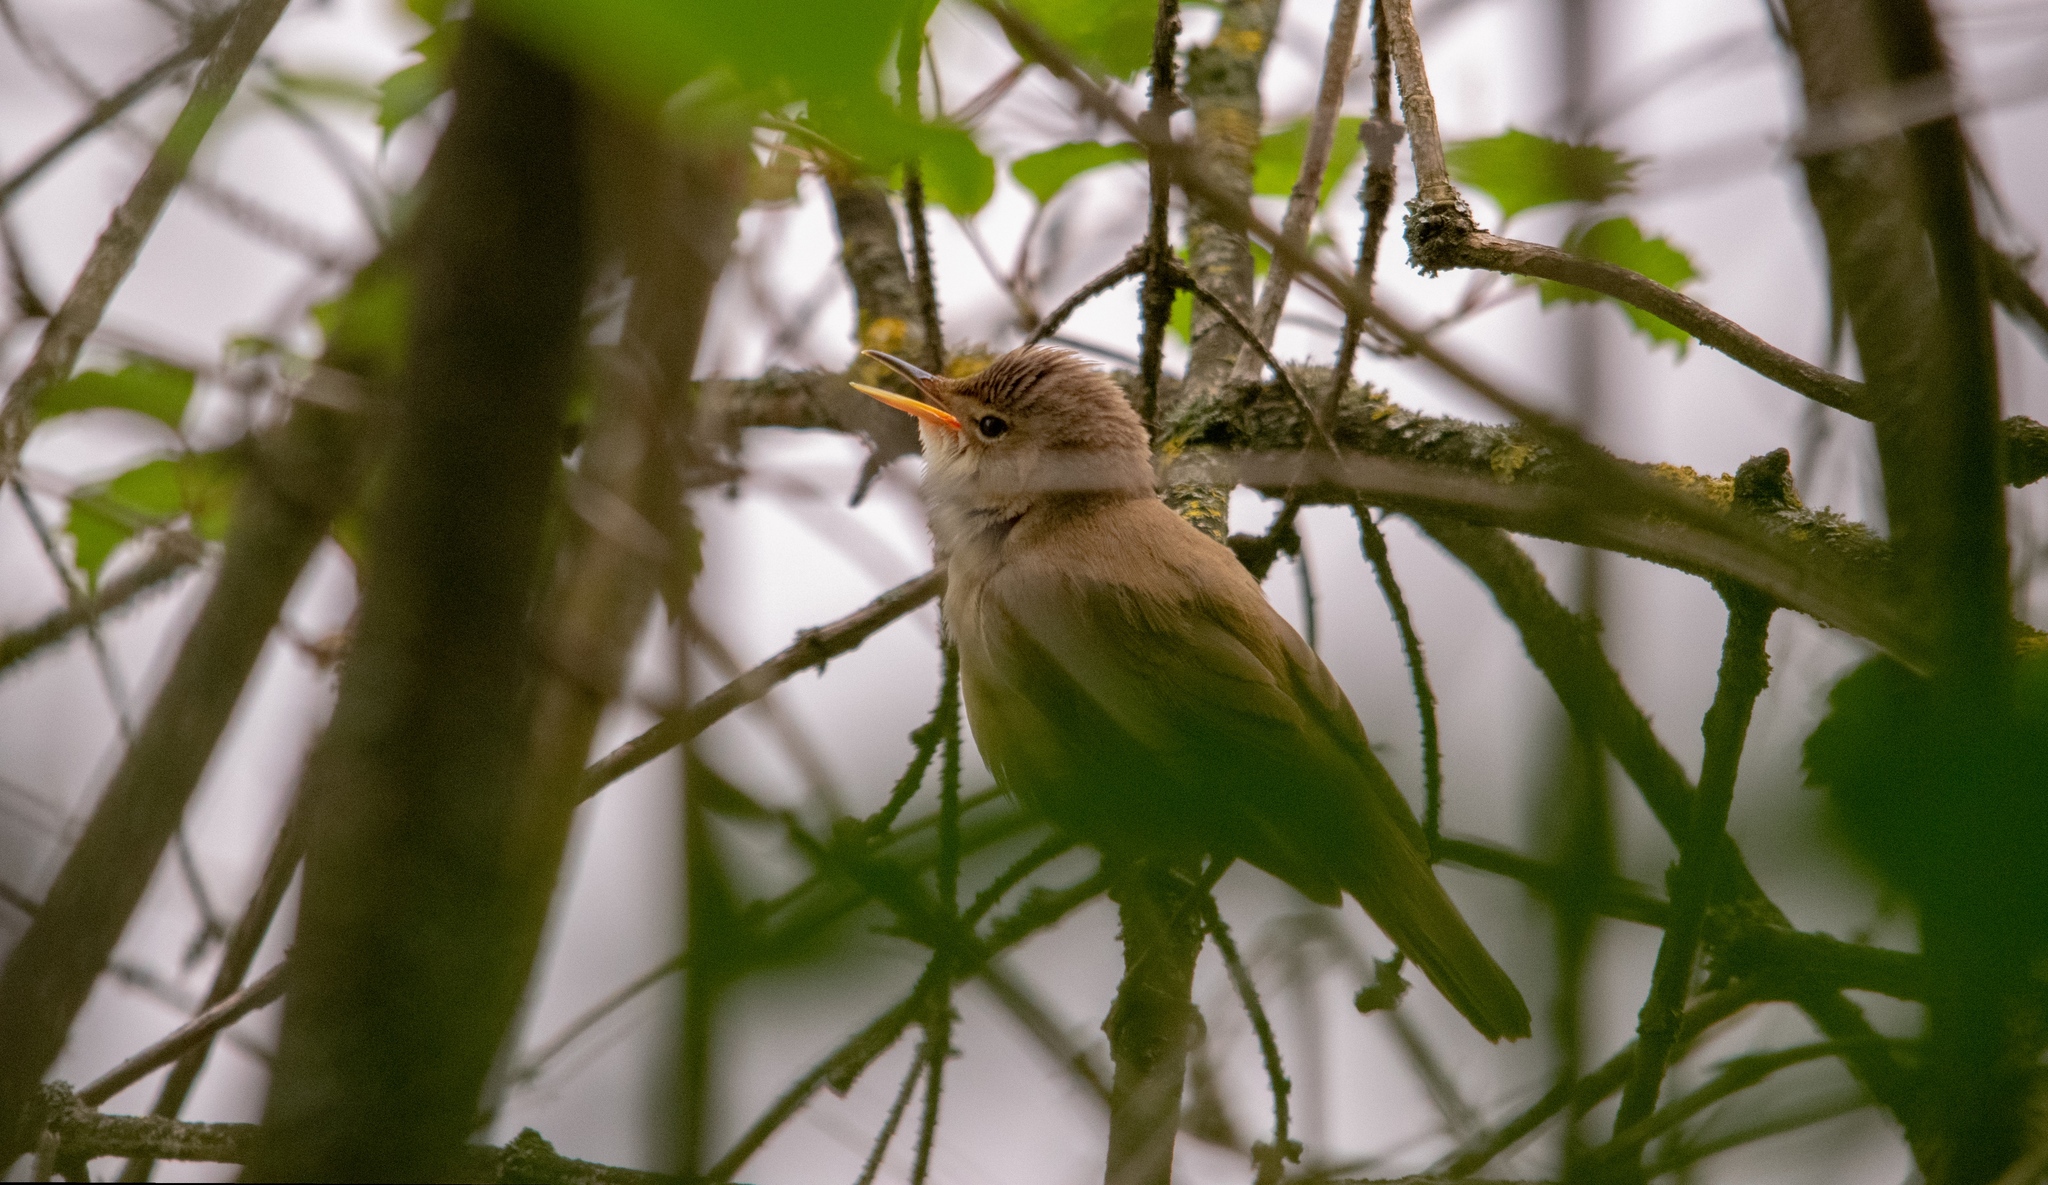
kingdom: Animalia
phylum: Chordata
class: Aves
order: Passeriformes
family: Acrocephalidae
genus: Acrocephalus
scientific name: Acrocephalus scirpaceus
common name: Eurasian reed warbler
